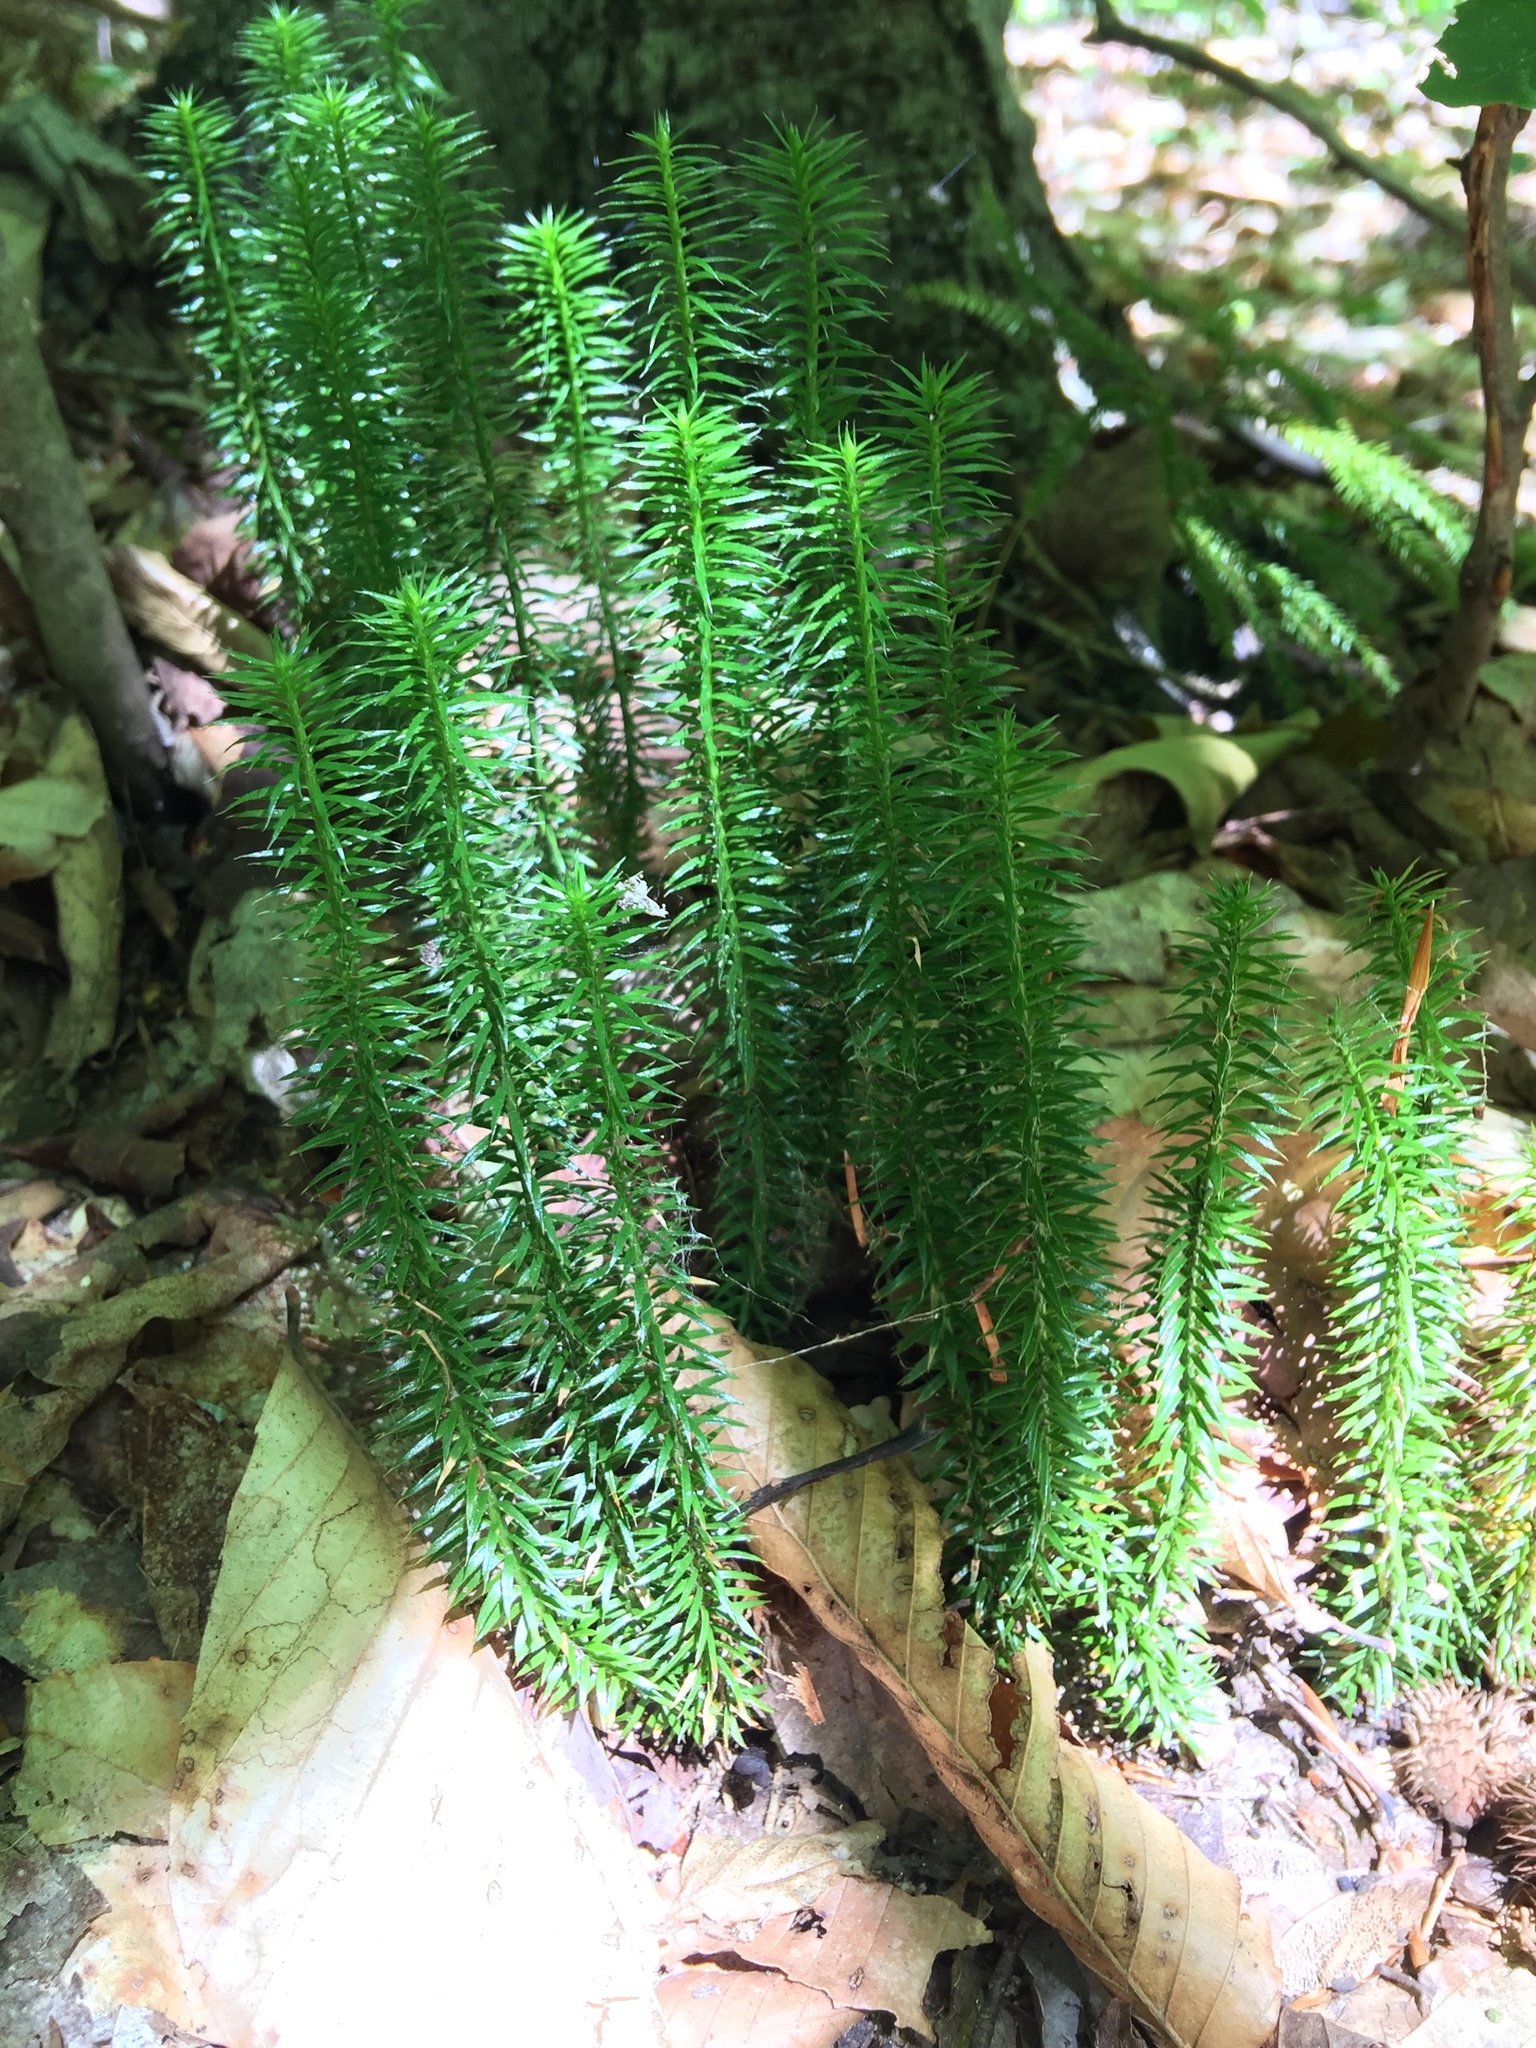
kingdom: Plantae
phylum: Tracheophyta
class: Lycopodiopsida
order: Lycopodiales
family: Lycopodiaceae
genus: Spinulum
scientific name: Spinulum annotinum
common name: Interrupted club-moss
